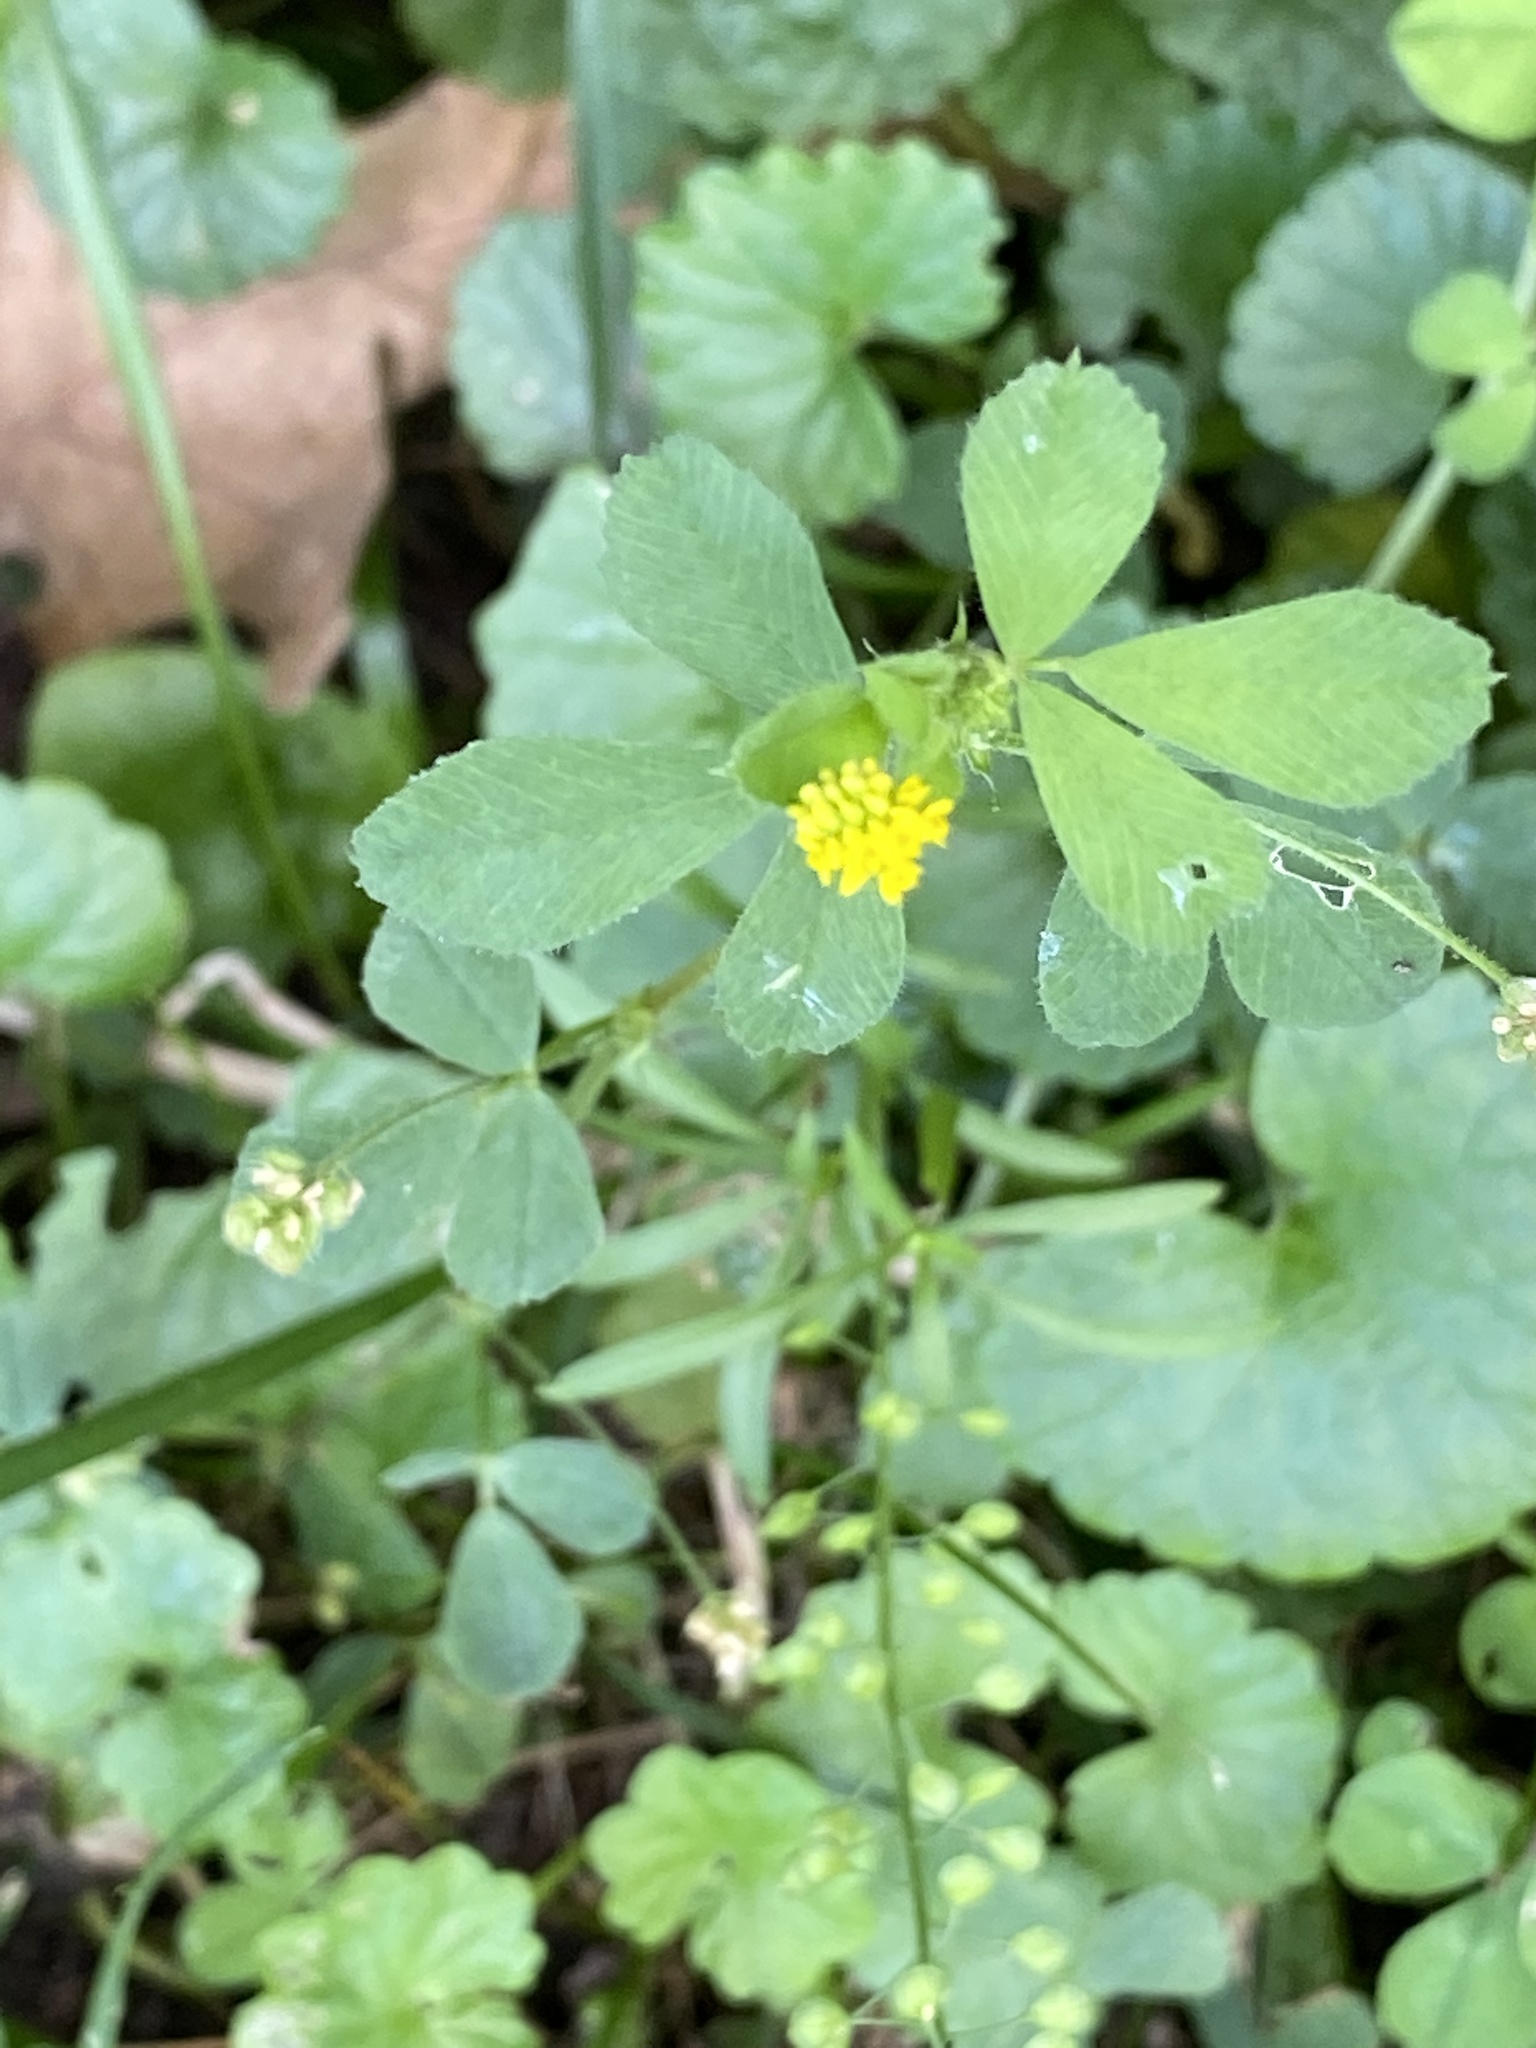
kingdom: Plantae
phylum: Tracheophyta
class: Magnoliopsida
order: Fabales
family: Fabaceae
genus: Medicago
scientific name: Medicago lupulina
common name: Black medick
